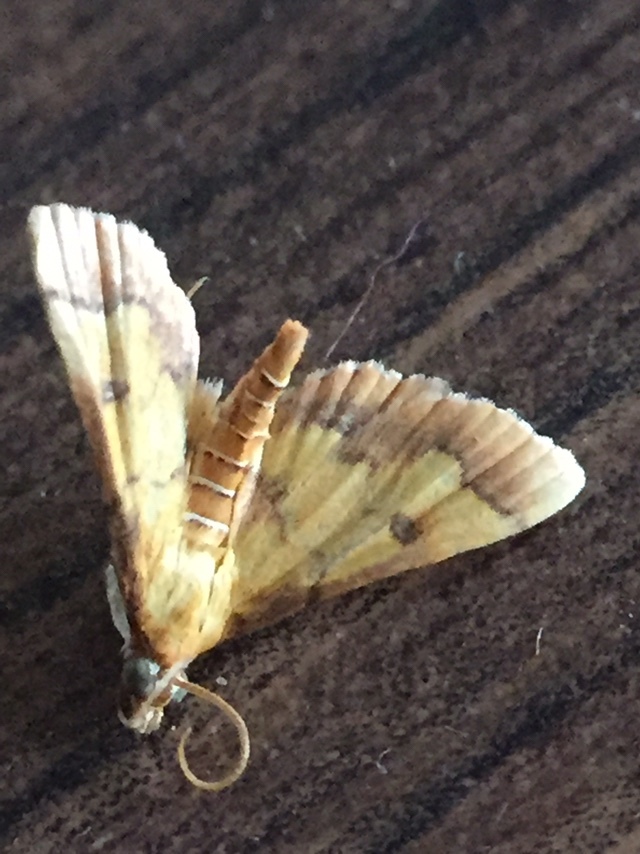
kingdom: Animalia
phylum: Arthropoda
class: Insecta
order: Lepidoptera
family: Crambidae
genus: Ischnurges
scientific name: Ischnurges luteomarginalis
